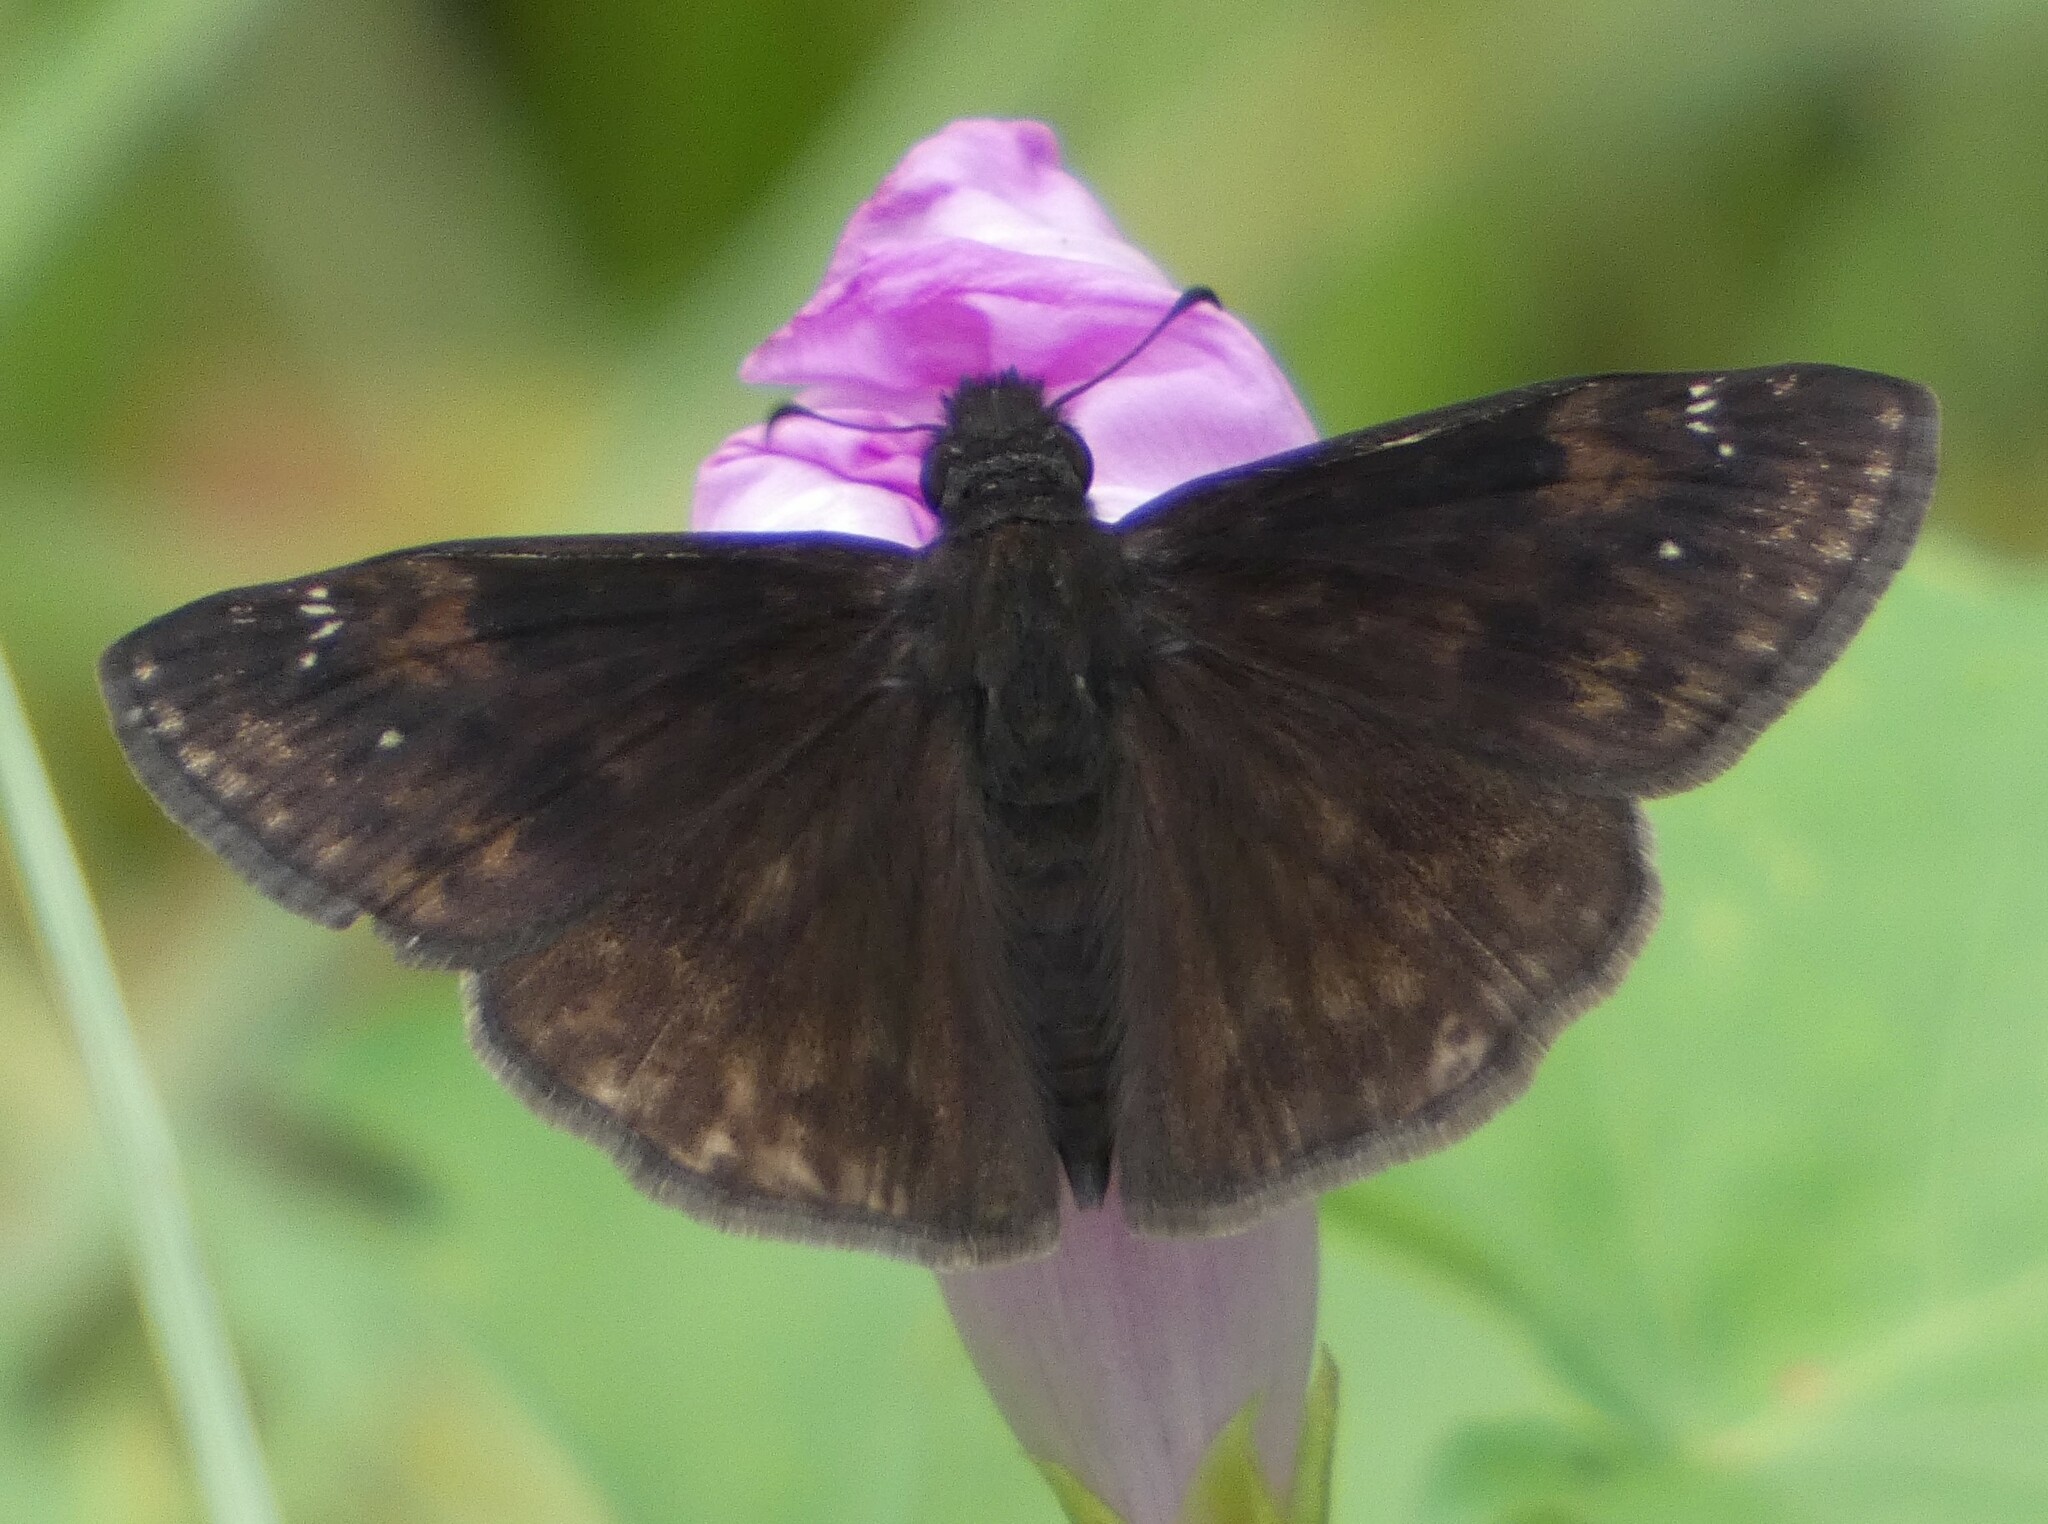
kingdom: Animalia
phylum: Arthropoda
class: Insecta
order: Lepidoptera
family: Hesperiidae
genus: Erynnis
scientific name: Erynnis zarucco
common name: Zarucco duskywing
